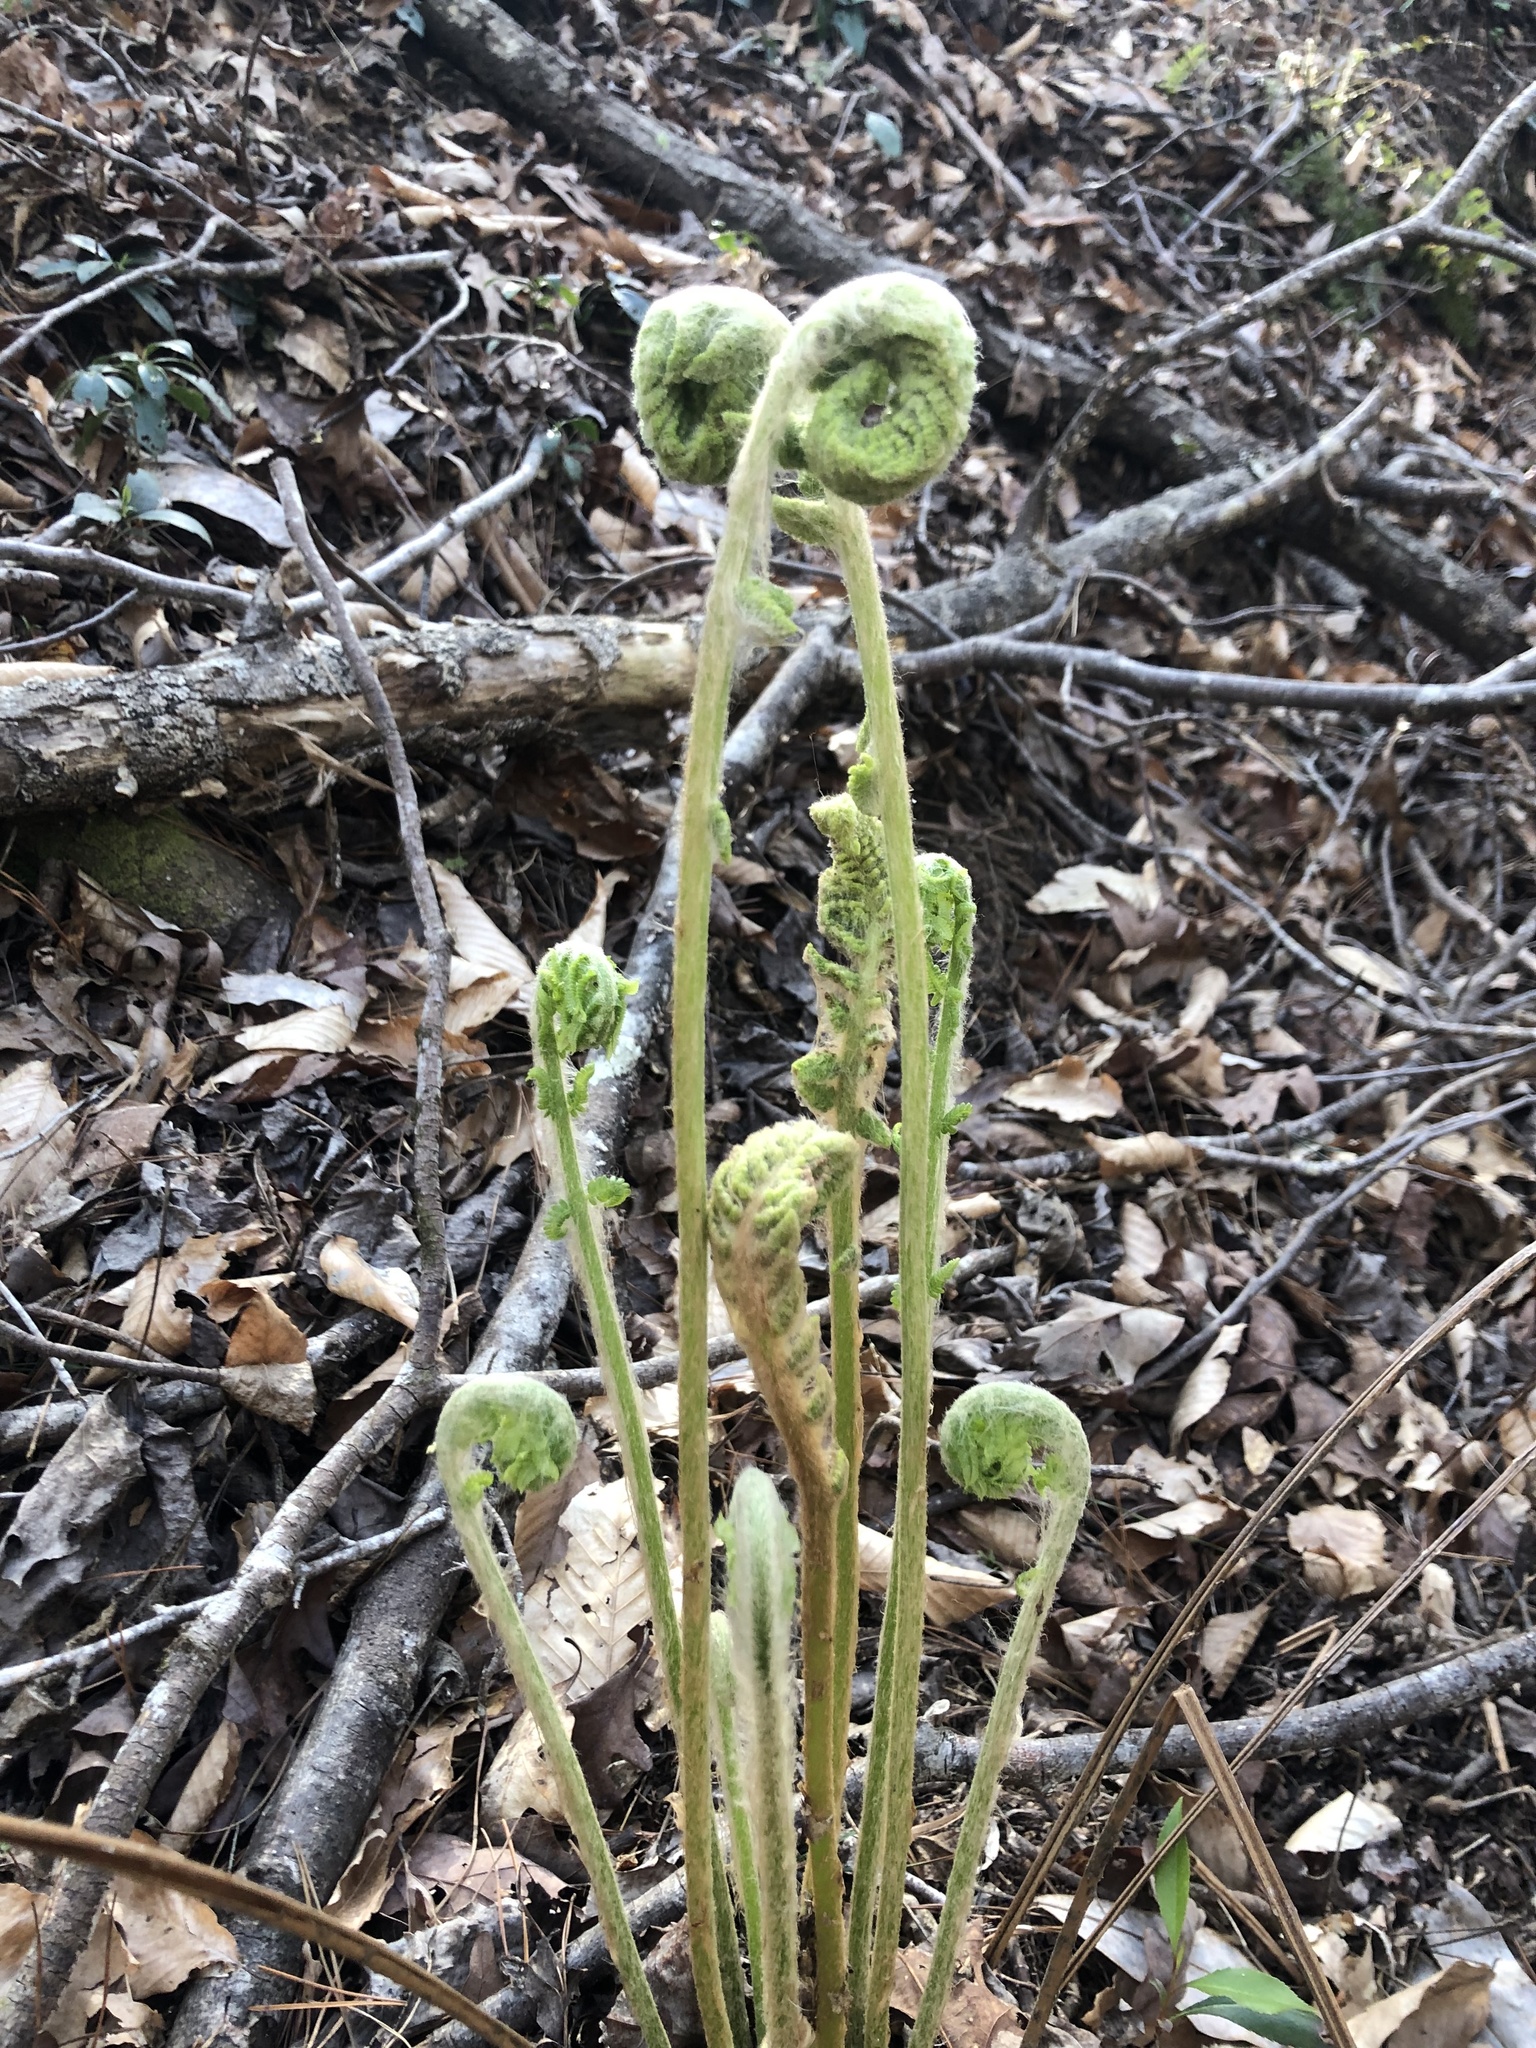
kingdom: Plantae
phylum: Tracheophyta
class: Polypodiopsida
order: Osmundales
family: Osmundaceae
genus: Osmundastrum
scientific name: Osmundastrum cinnamomeum
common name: Cinnamon fern
